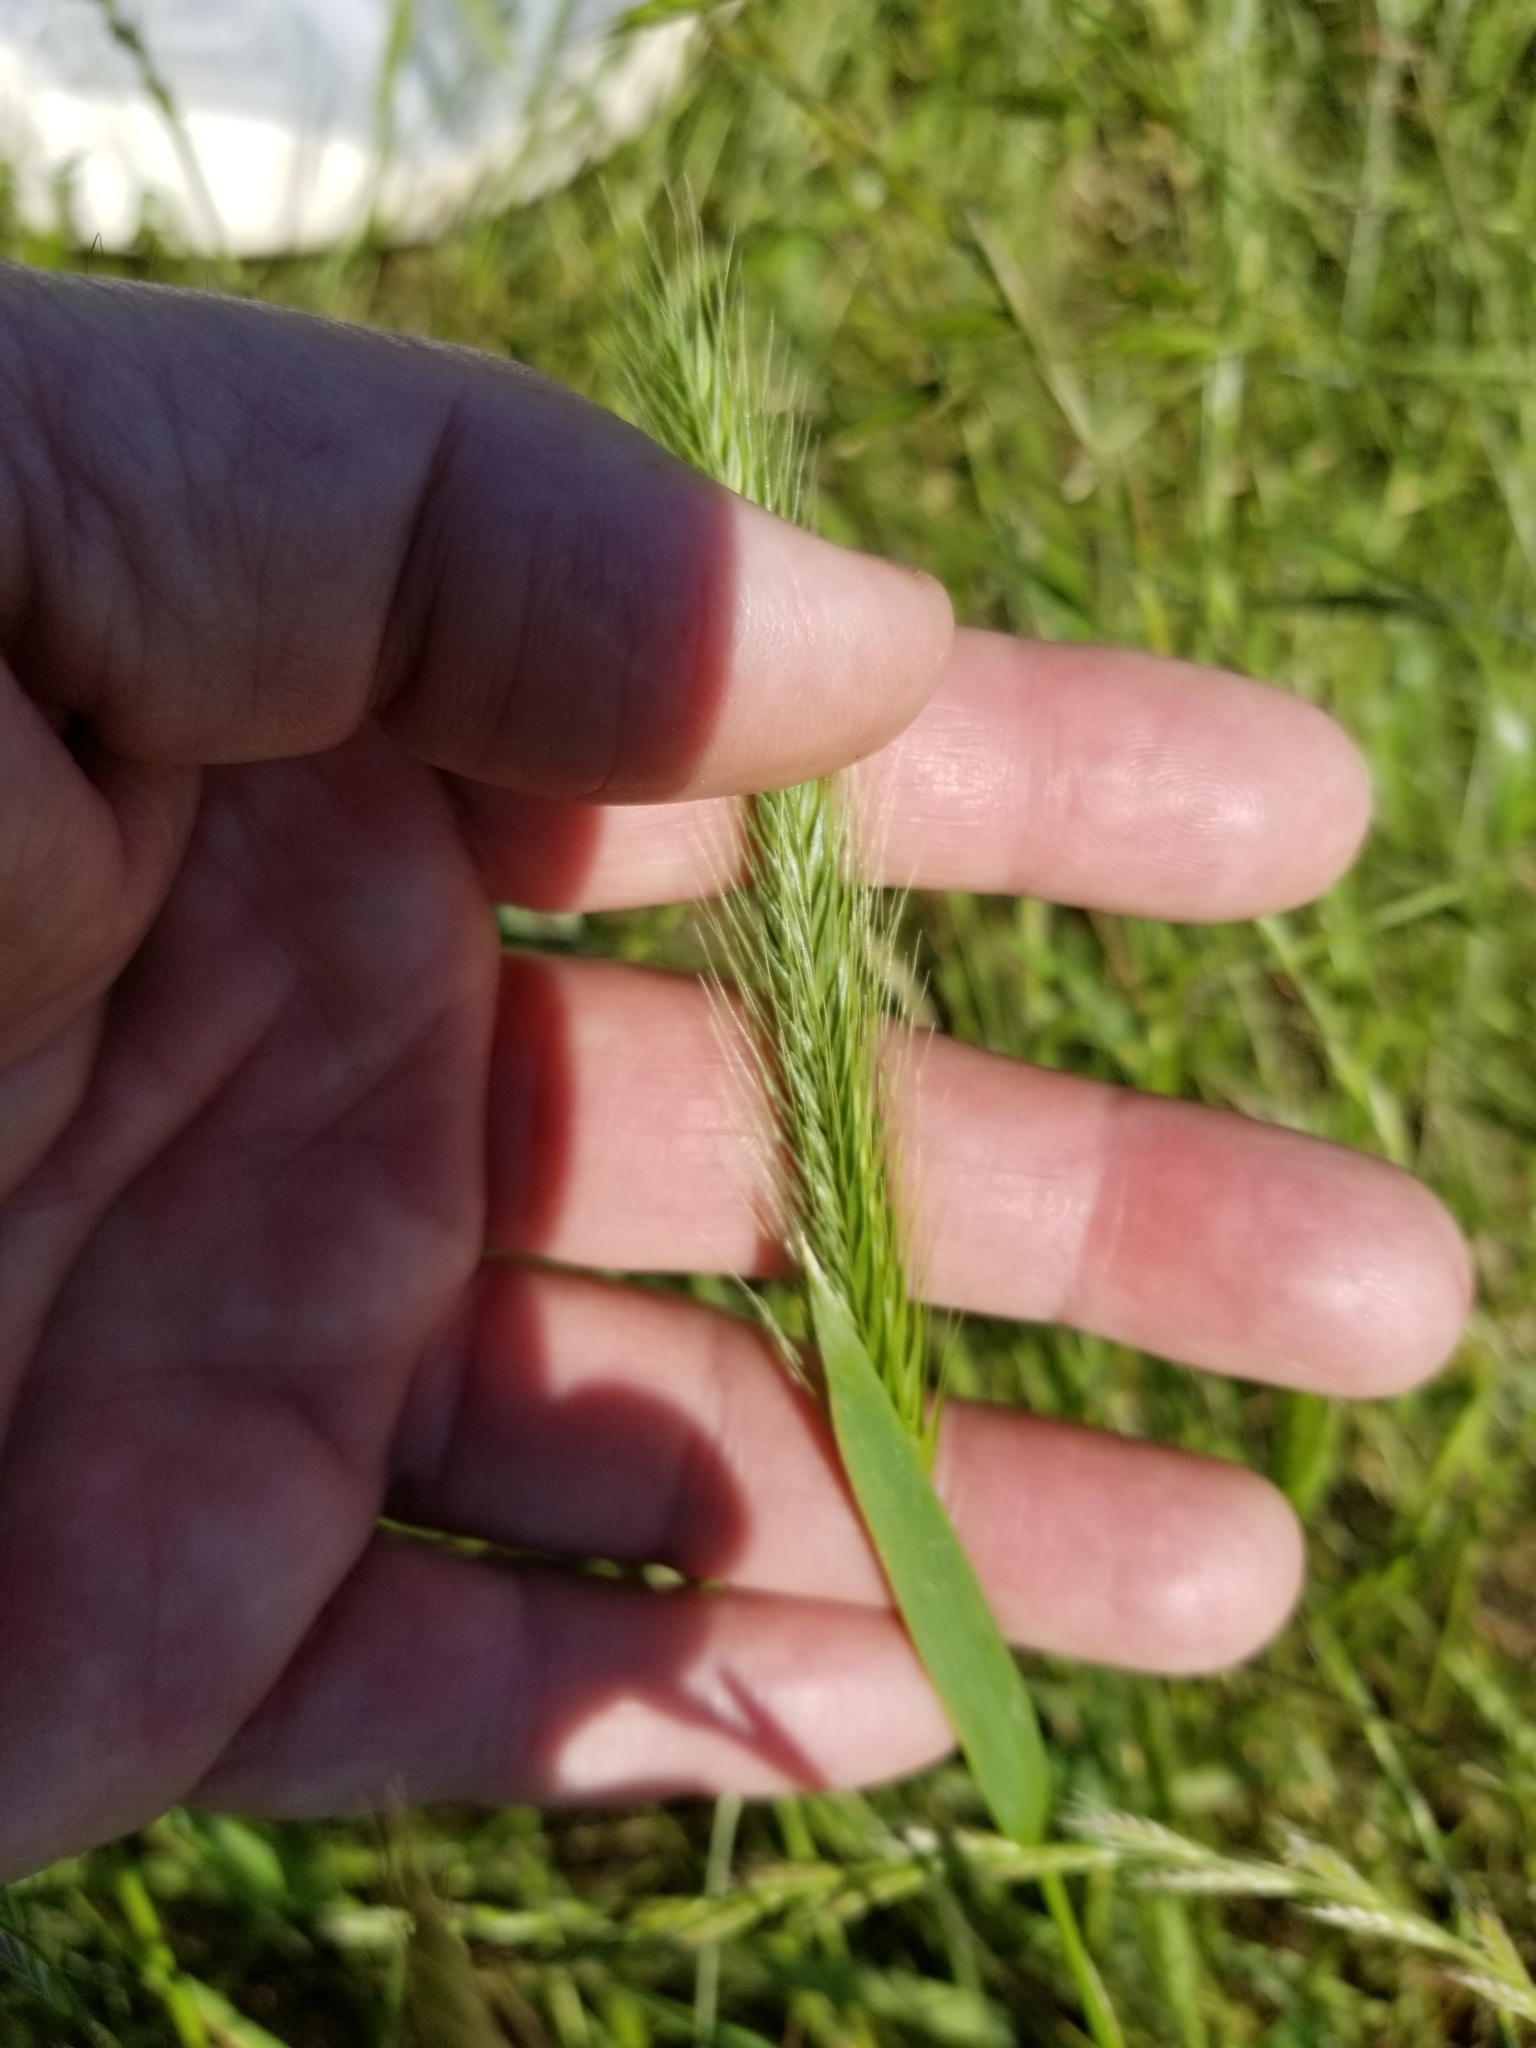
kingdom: Plantae
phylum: Tracheophyta
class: Liliopsida
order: Poales
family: Poaceae
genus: Hordeum
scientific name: Hordeum pusillum
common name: Little barley
